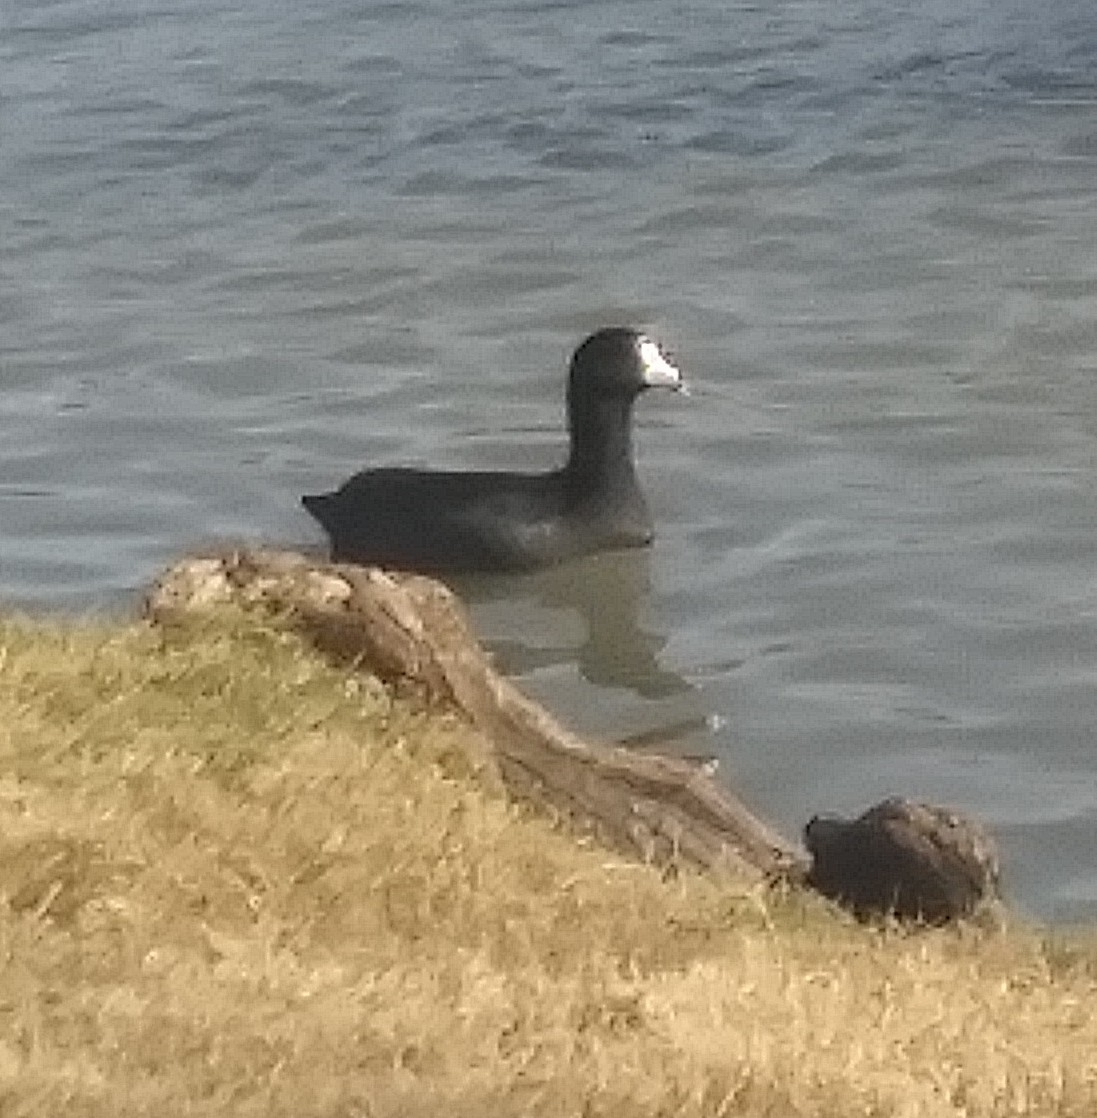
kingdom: Animalia
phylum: Chordata
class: Aves
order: Gruiformes
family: Rallidae
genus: Fulica
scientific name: Fulica americana
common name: American coot
